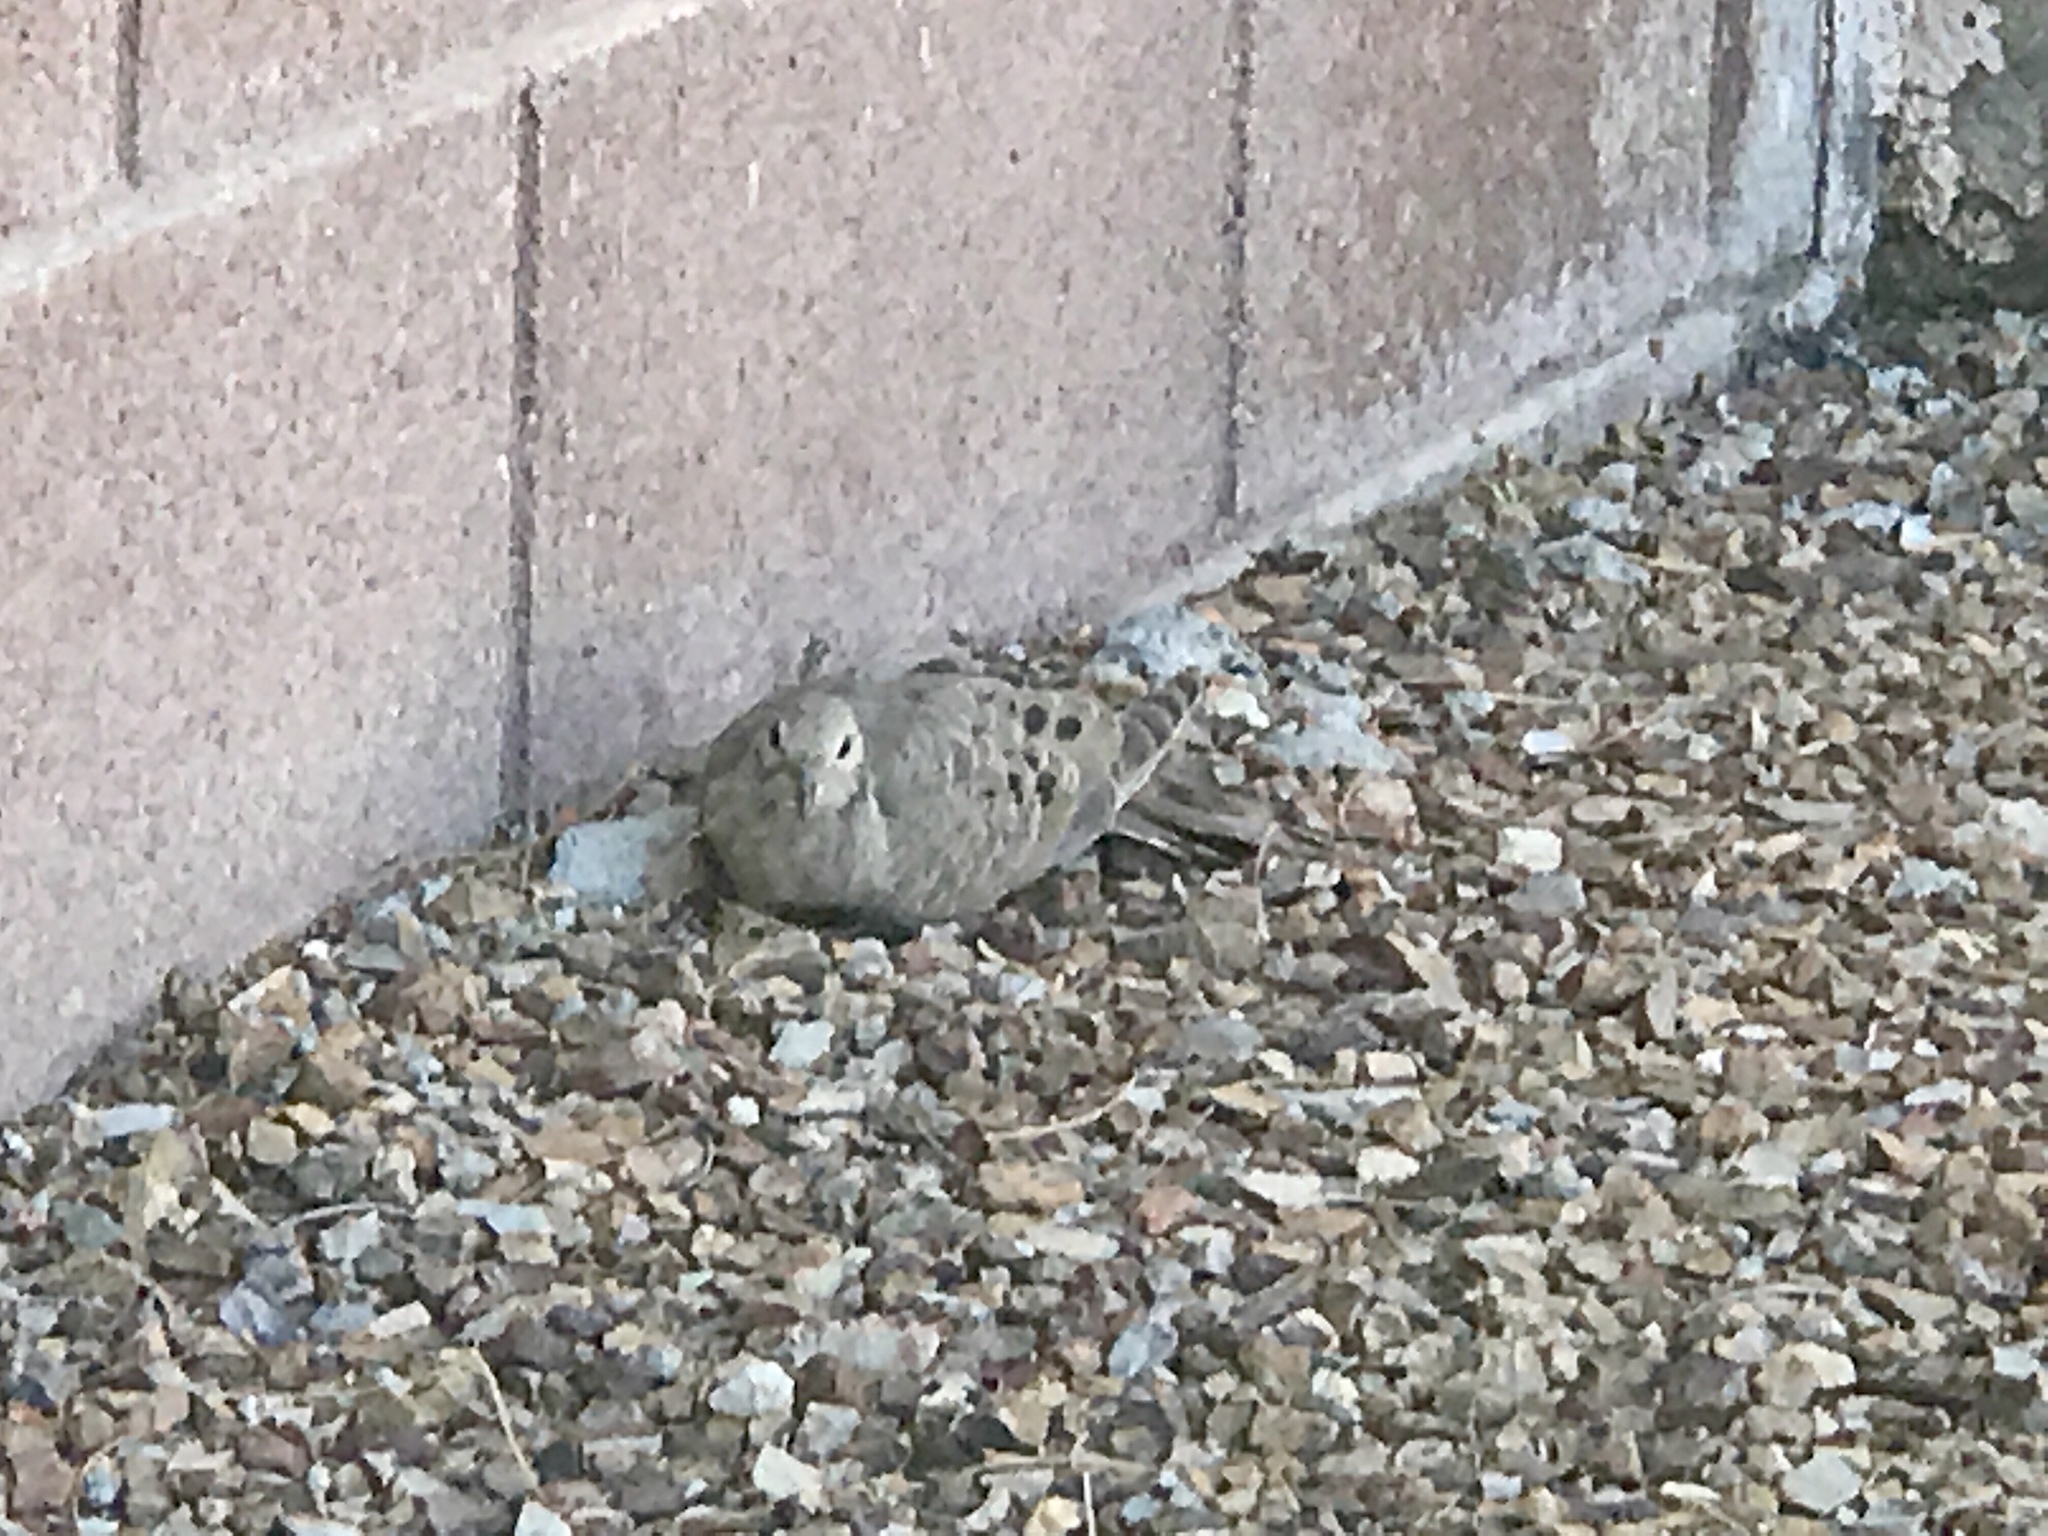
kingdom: Animalia
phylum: Chordata
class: Aves
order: Columbiformes
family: Columbidae
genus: Zenaida
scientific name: Zenaida macroura
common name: Mourning dove
